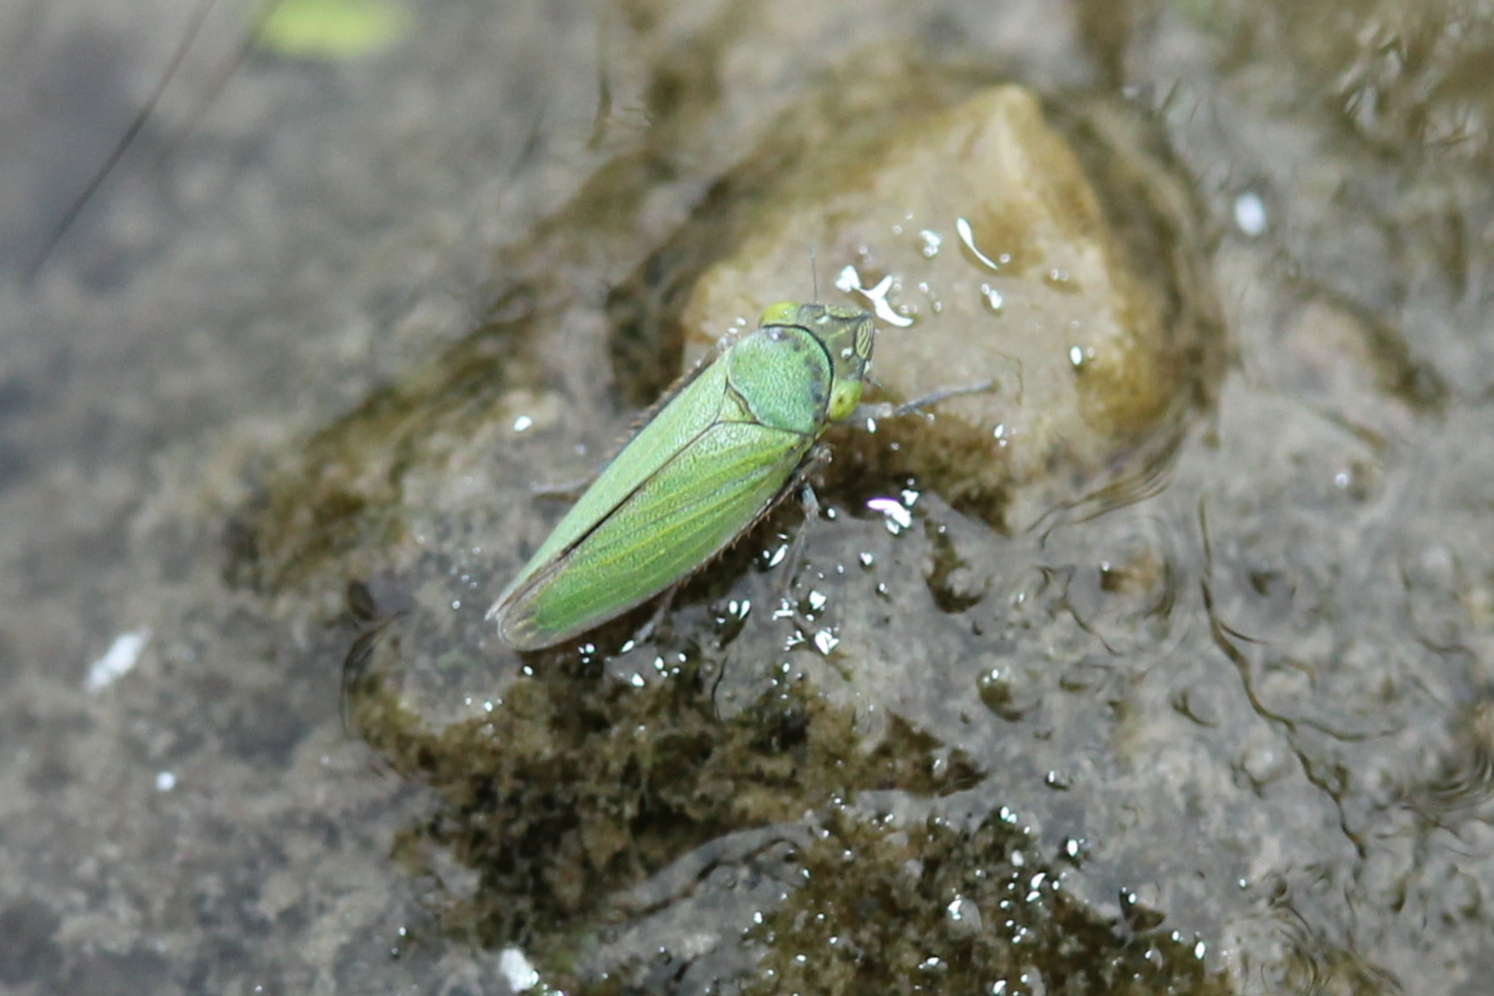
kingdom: Animalia
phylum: Arthropoda
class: Insecta
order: Hemiptera
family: Cicadellidae
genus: Helochara
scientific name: Helochara communis
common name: Bog leafhopper
